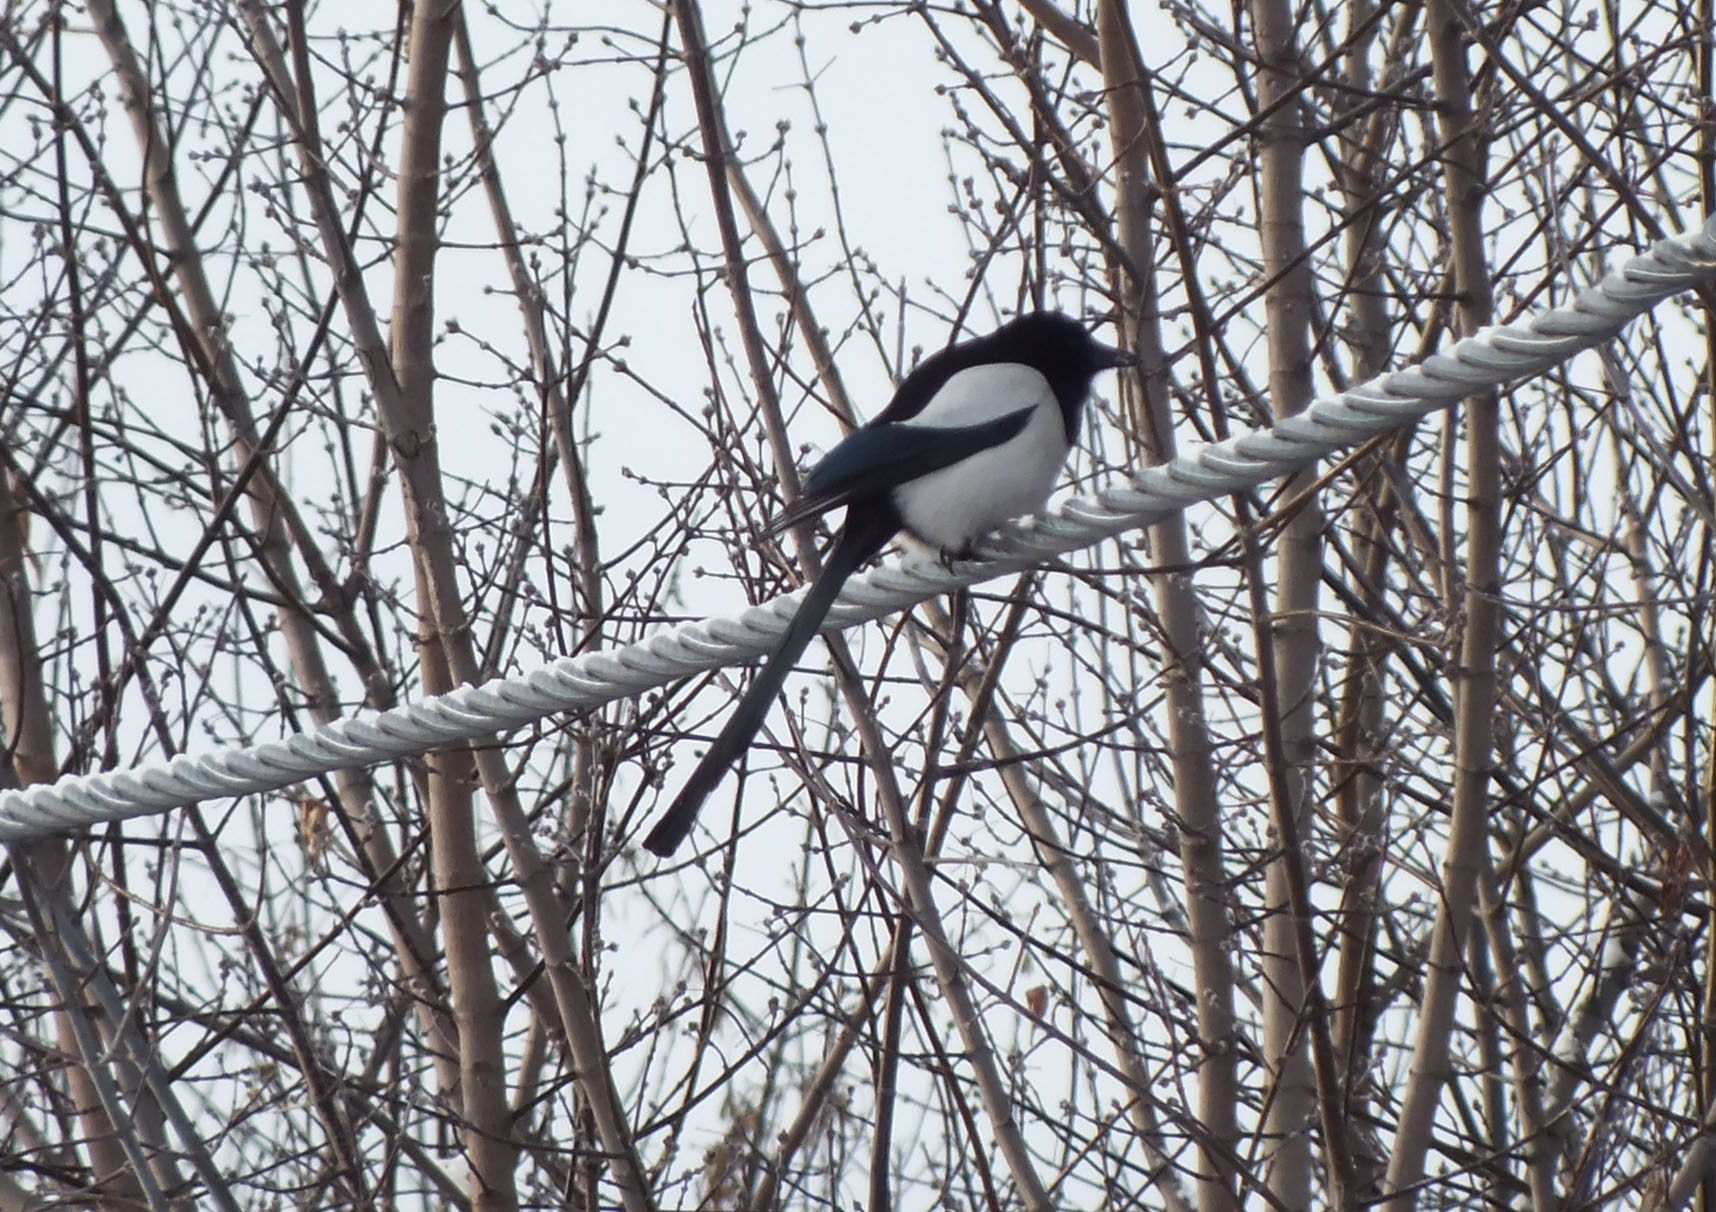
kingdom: Animalia
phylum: Chordata
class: Aves
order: Passeriformes
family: Corvidae
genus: Pica
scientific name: Pica pica
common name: Eurasian magpie
